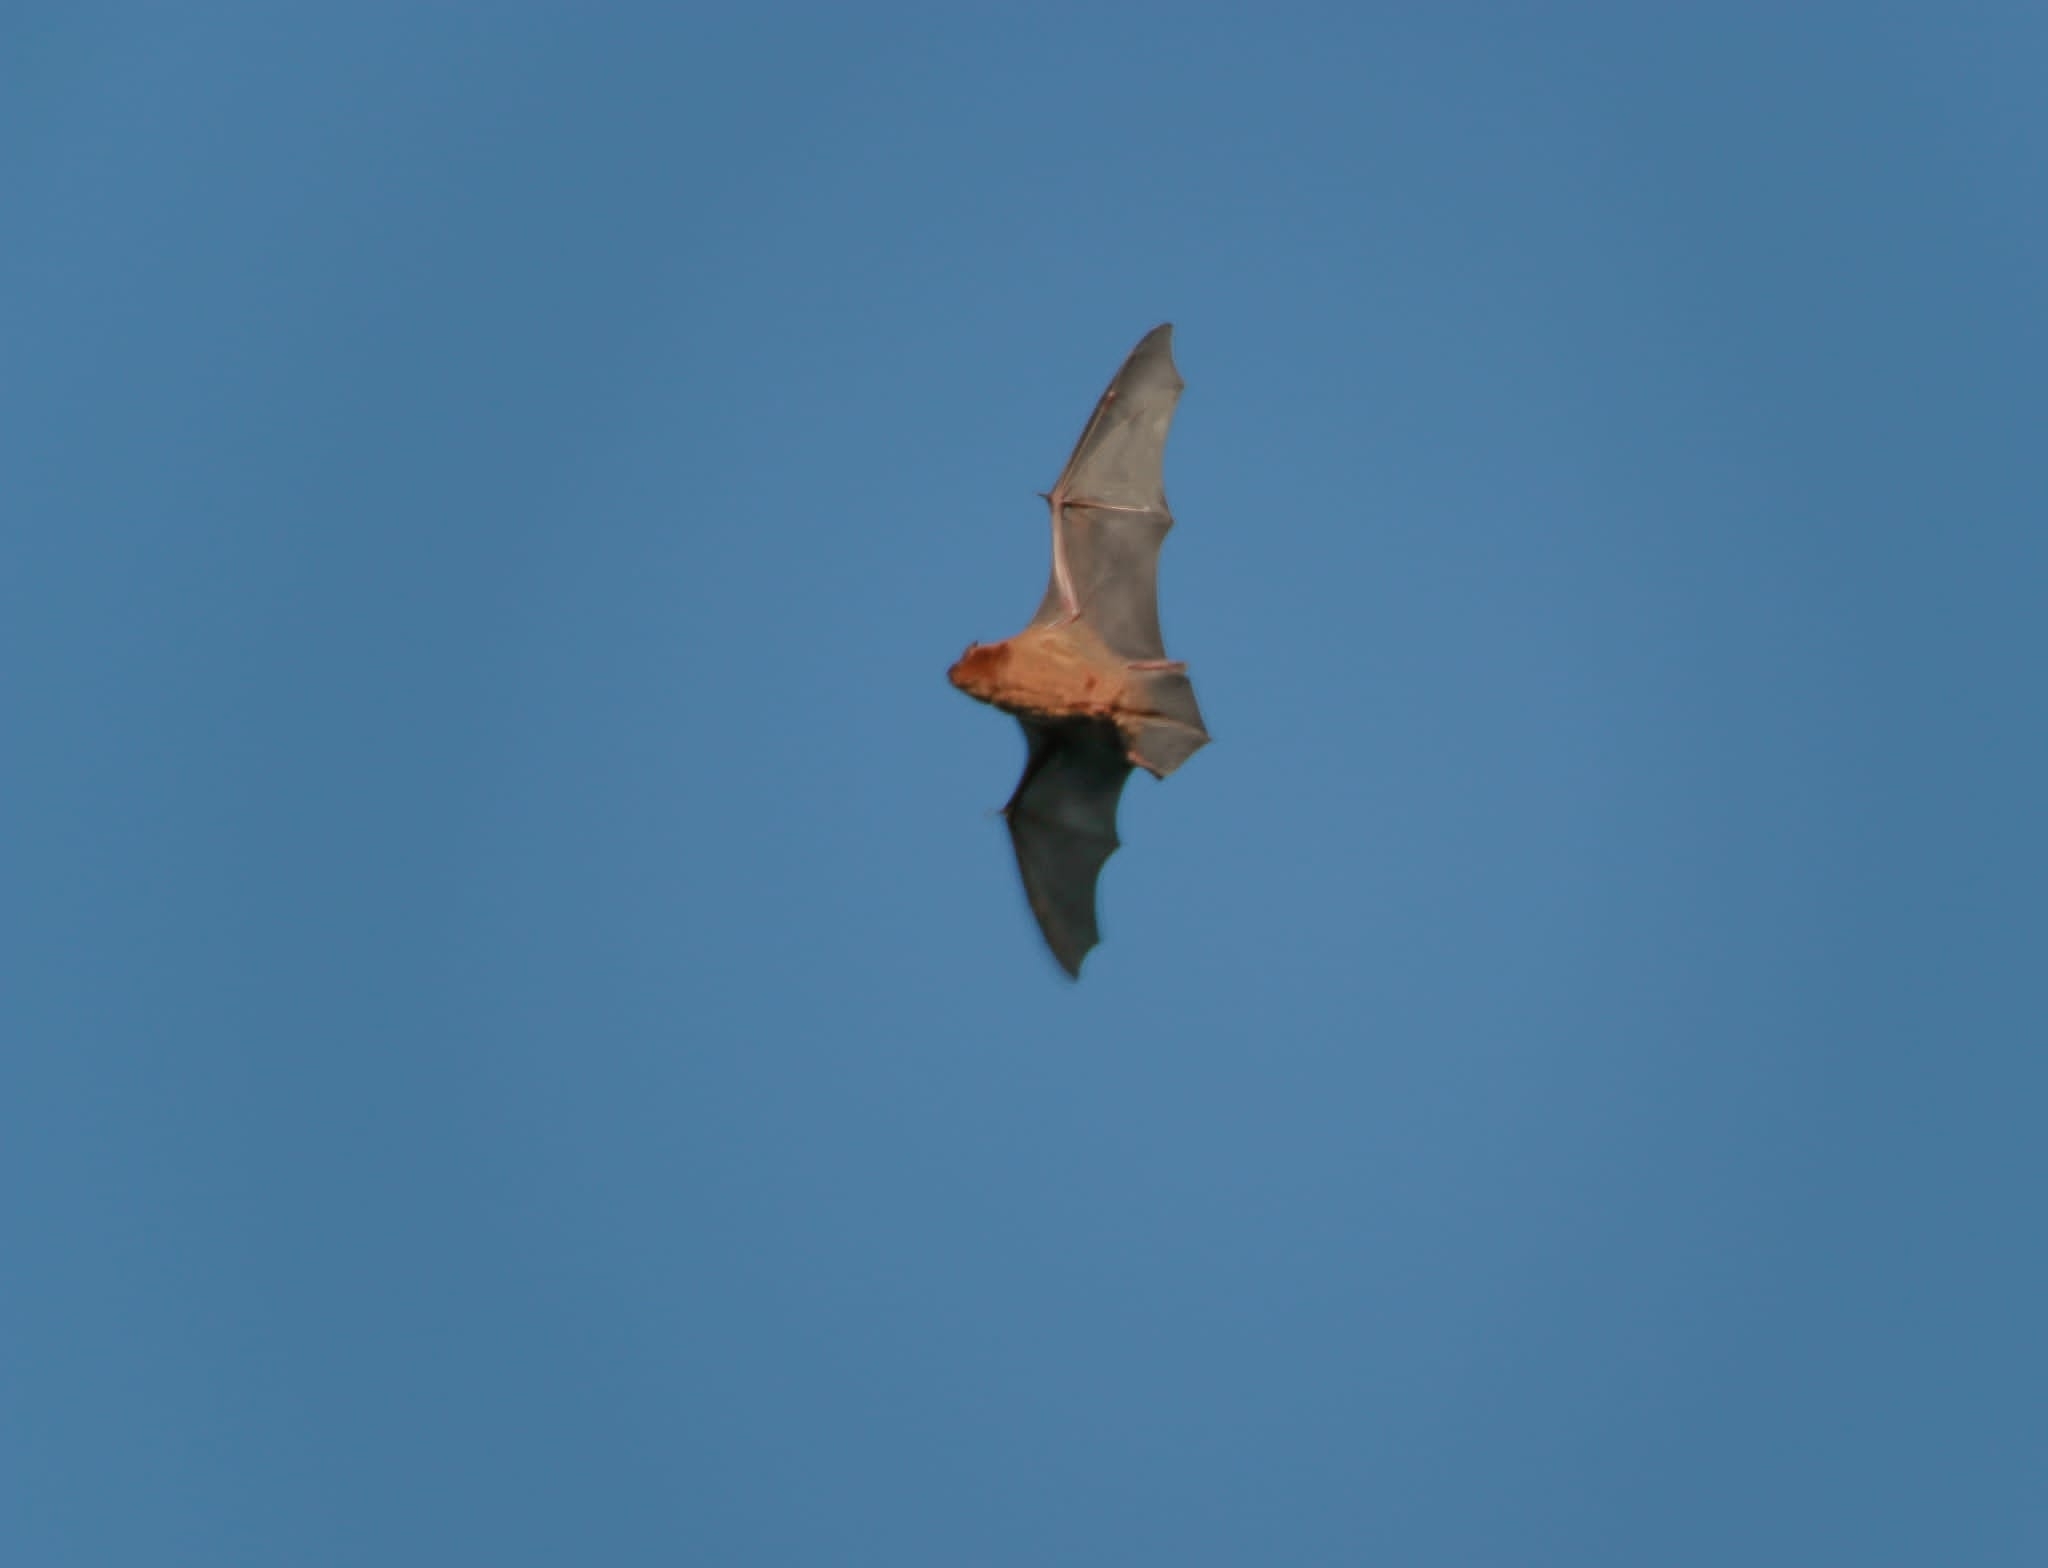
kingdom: Animalia
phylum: Chordata
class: Mammalia
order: Chiroptera
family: Vespertilionidae
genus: Nyctalus
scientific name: Nyctalus noctula
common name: Noctule
